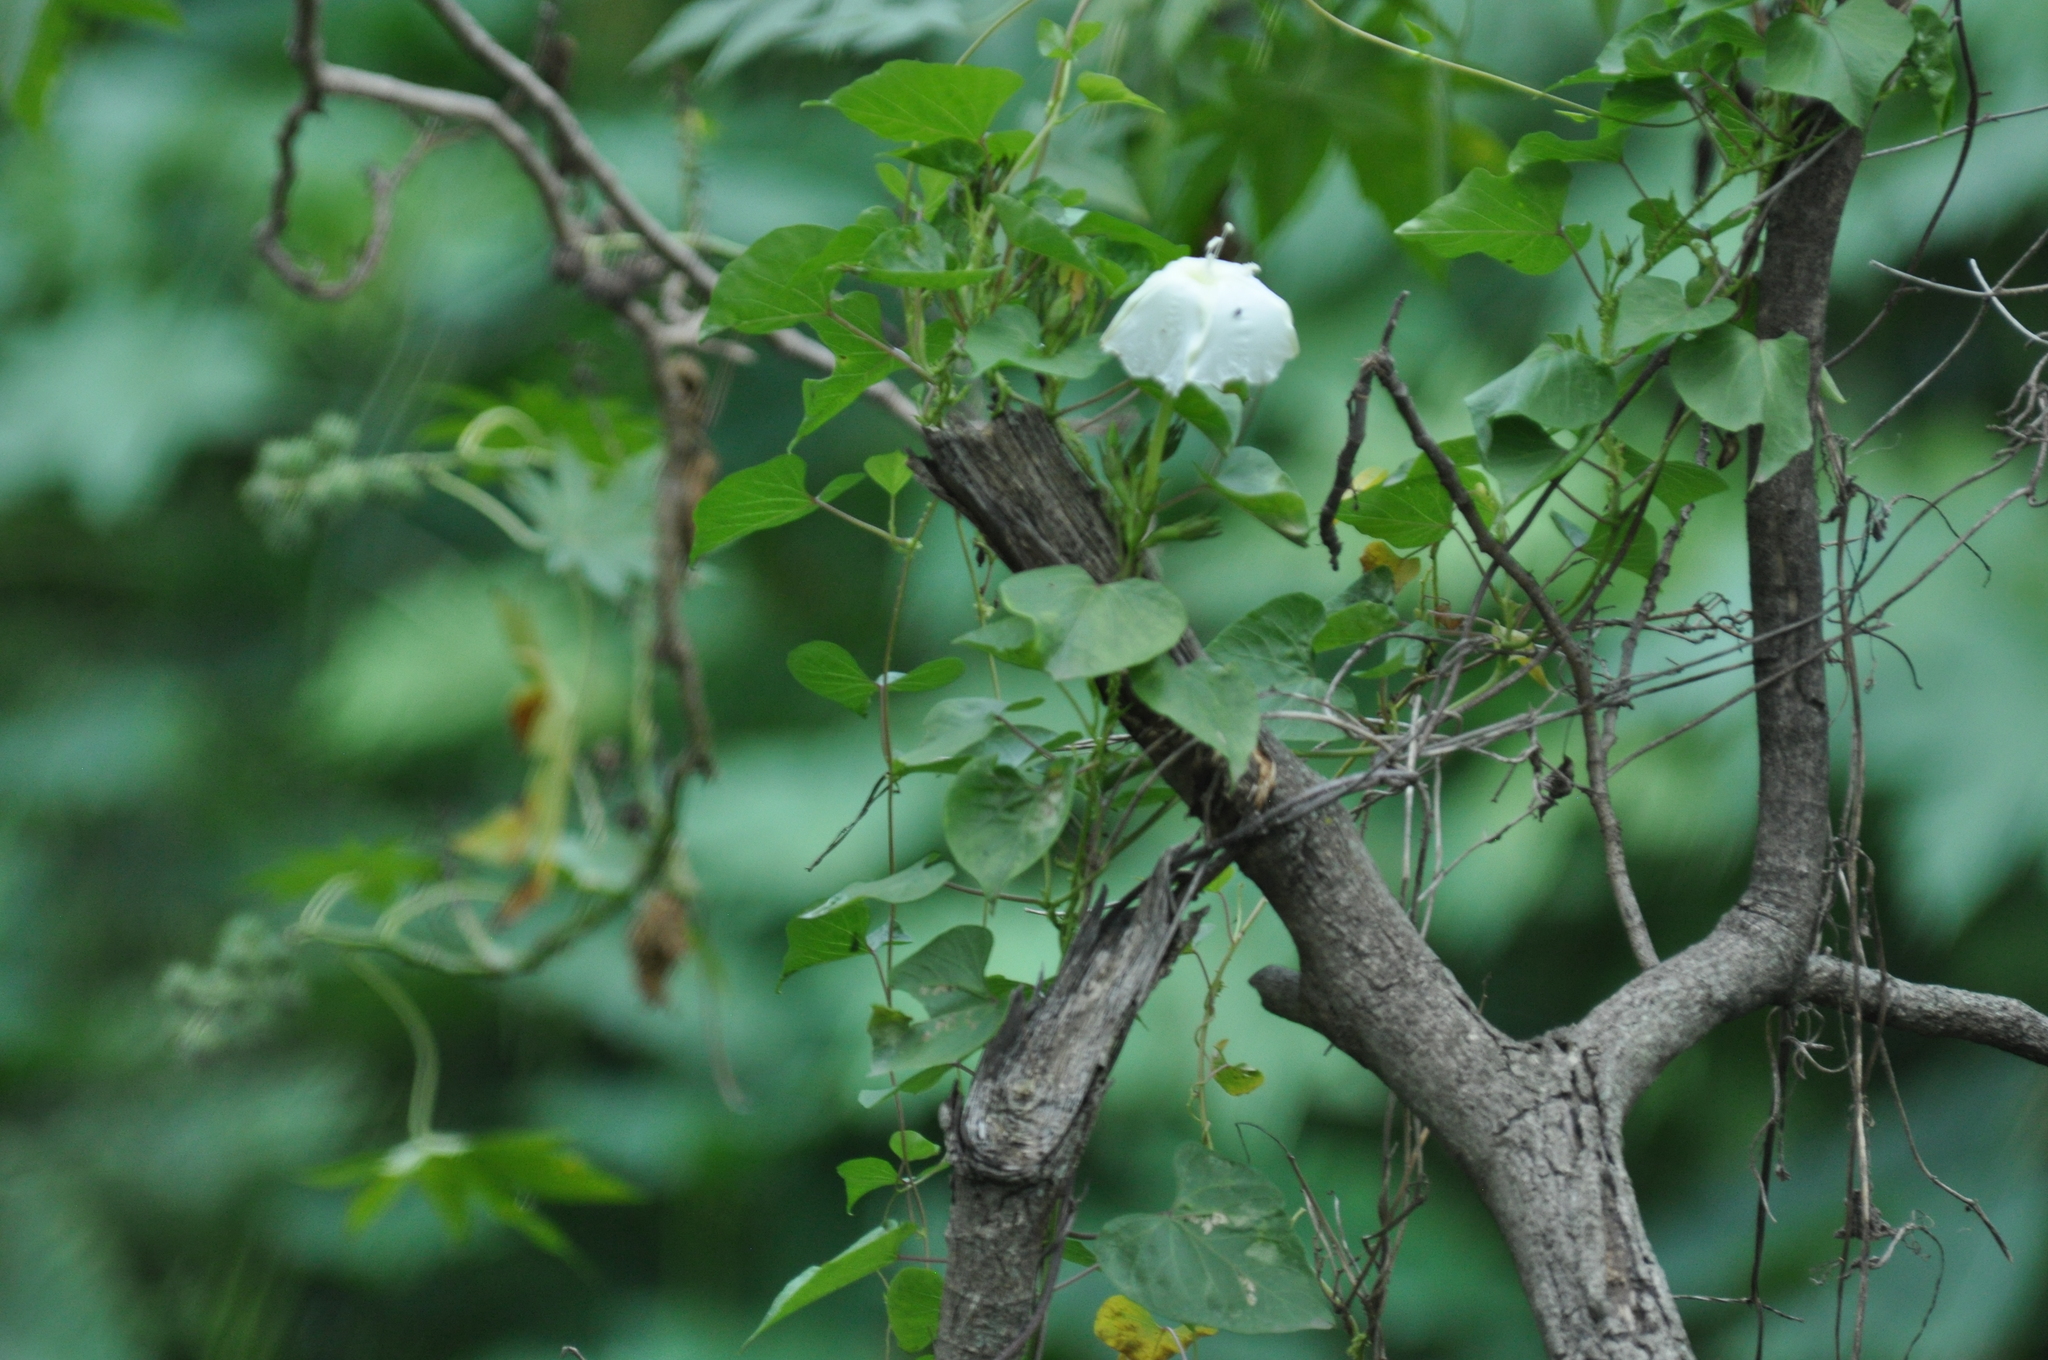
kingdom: Plantae
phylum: Tracheophyta
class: Magnoliopsida
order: Solanales
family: Convolvulaceae
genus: Ipomoea
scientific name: Ipomoea alba
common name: Moonflower
